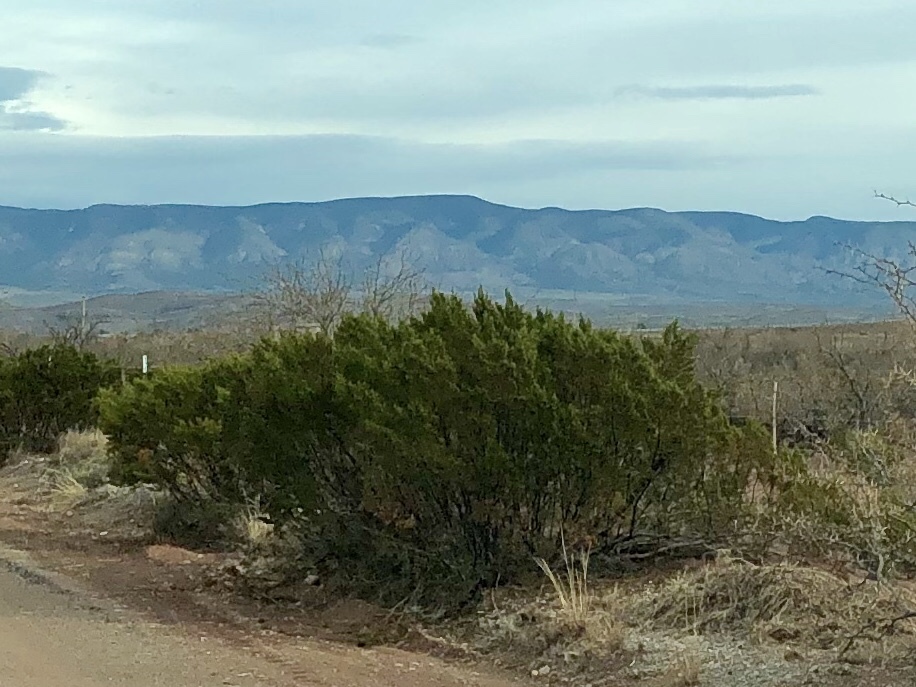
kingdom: Plantae
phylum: Tracheophyta
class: Magnoliopsida
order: Zygophyllales
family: Zygophyllaceae
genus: Larrea
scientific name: Larrea tridentata
